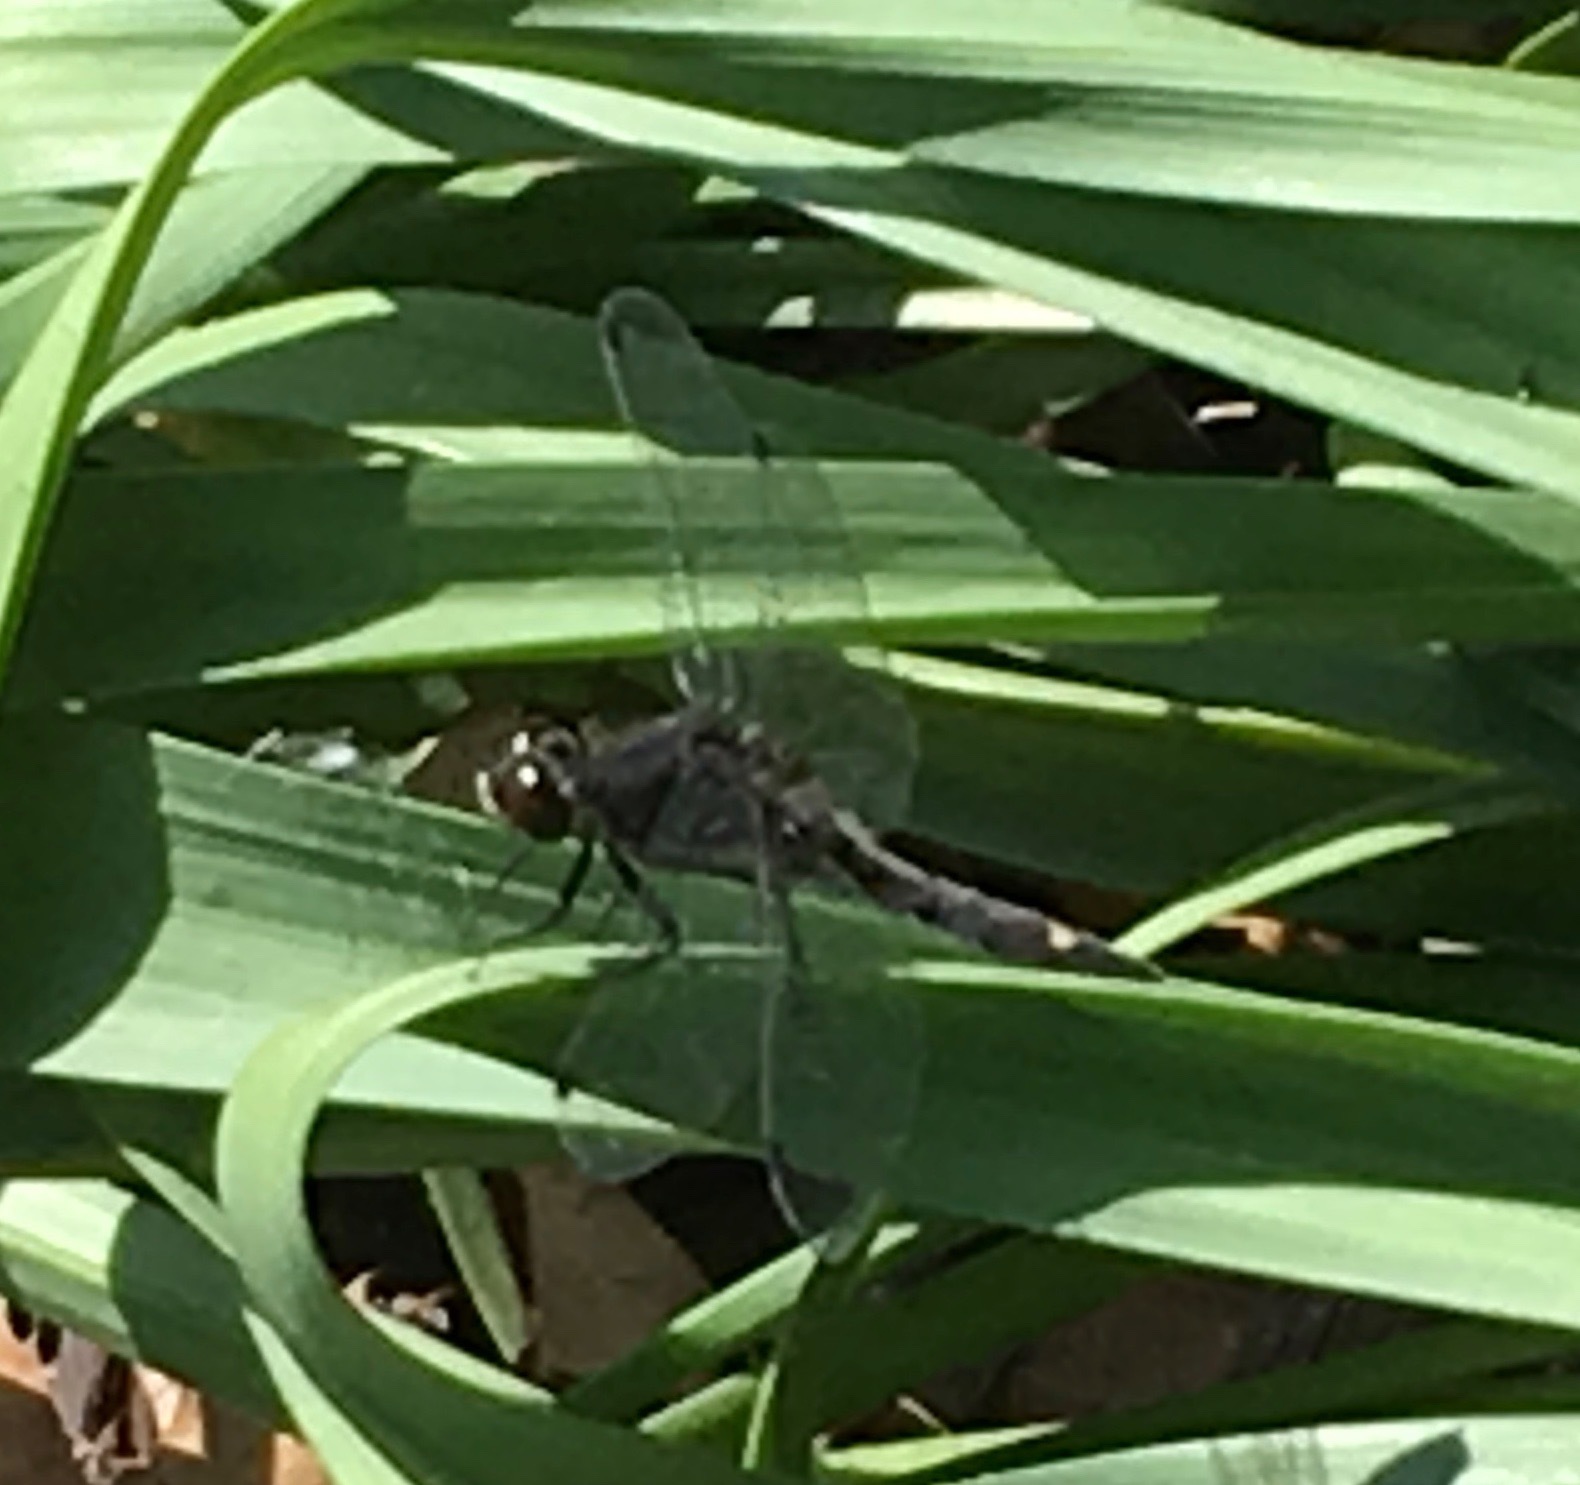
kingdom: Animalia
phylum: Arthropoda
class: Insecta
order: Odonata
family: Libellulidae
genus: Leucorrhinia
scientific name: Leucorrhinia intacta
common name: Dot-tailed whiteface
